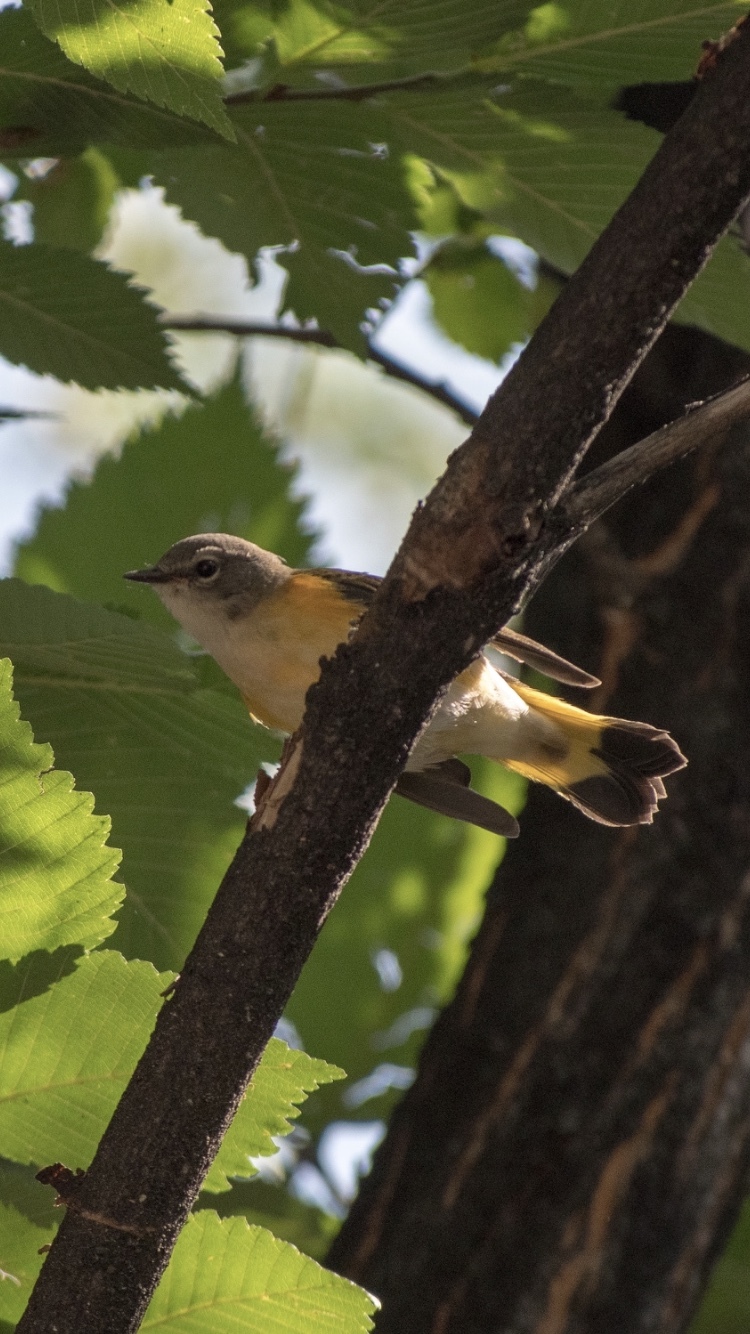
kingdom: Animalia
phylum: Chordata
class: Aves
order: Passeriformes
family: Parulidae
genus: Setophaga
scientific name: Setophaga ruticilla
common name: American redstart
